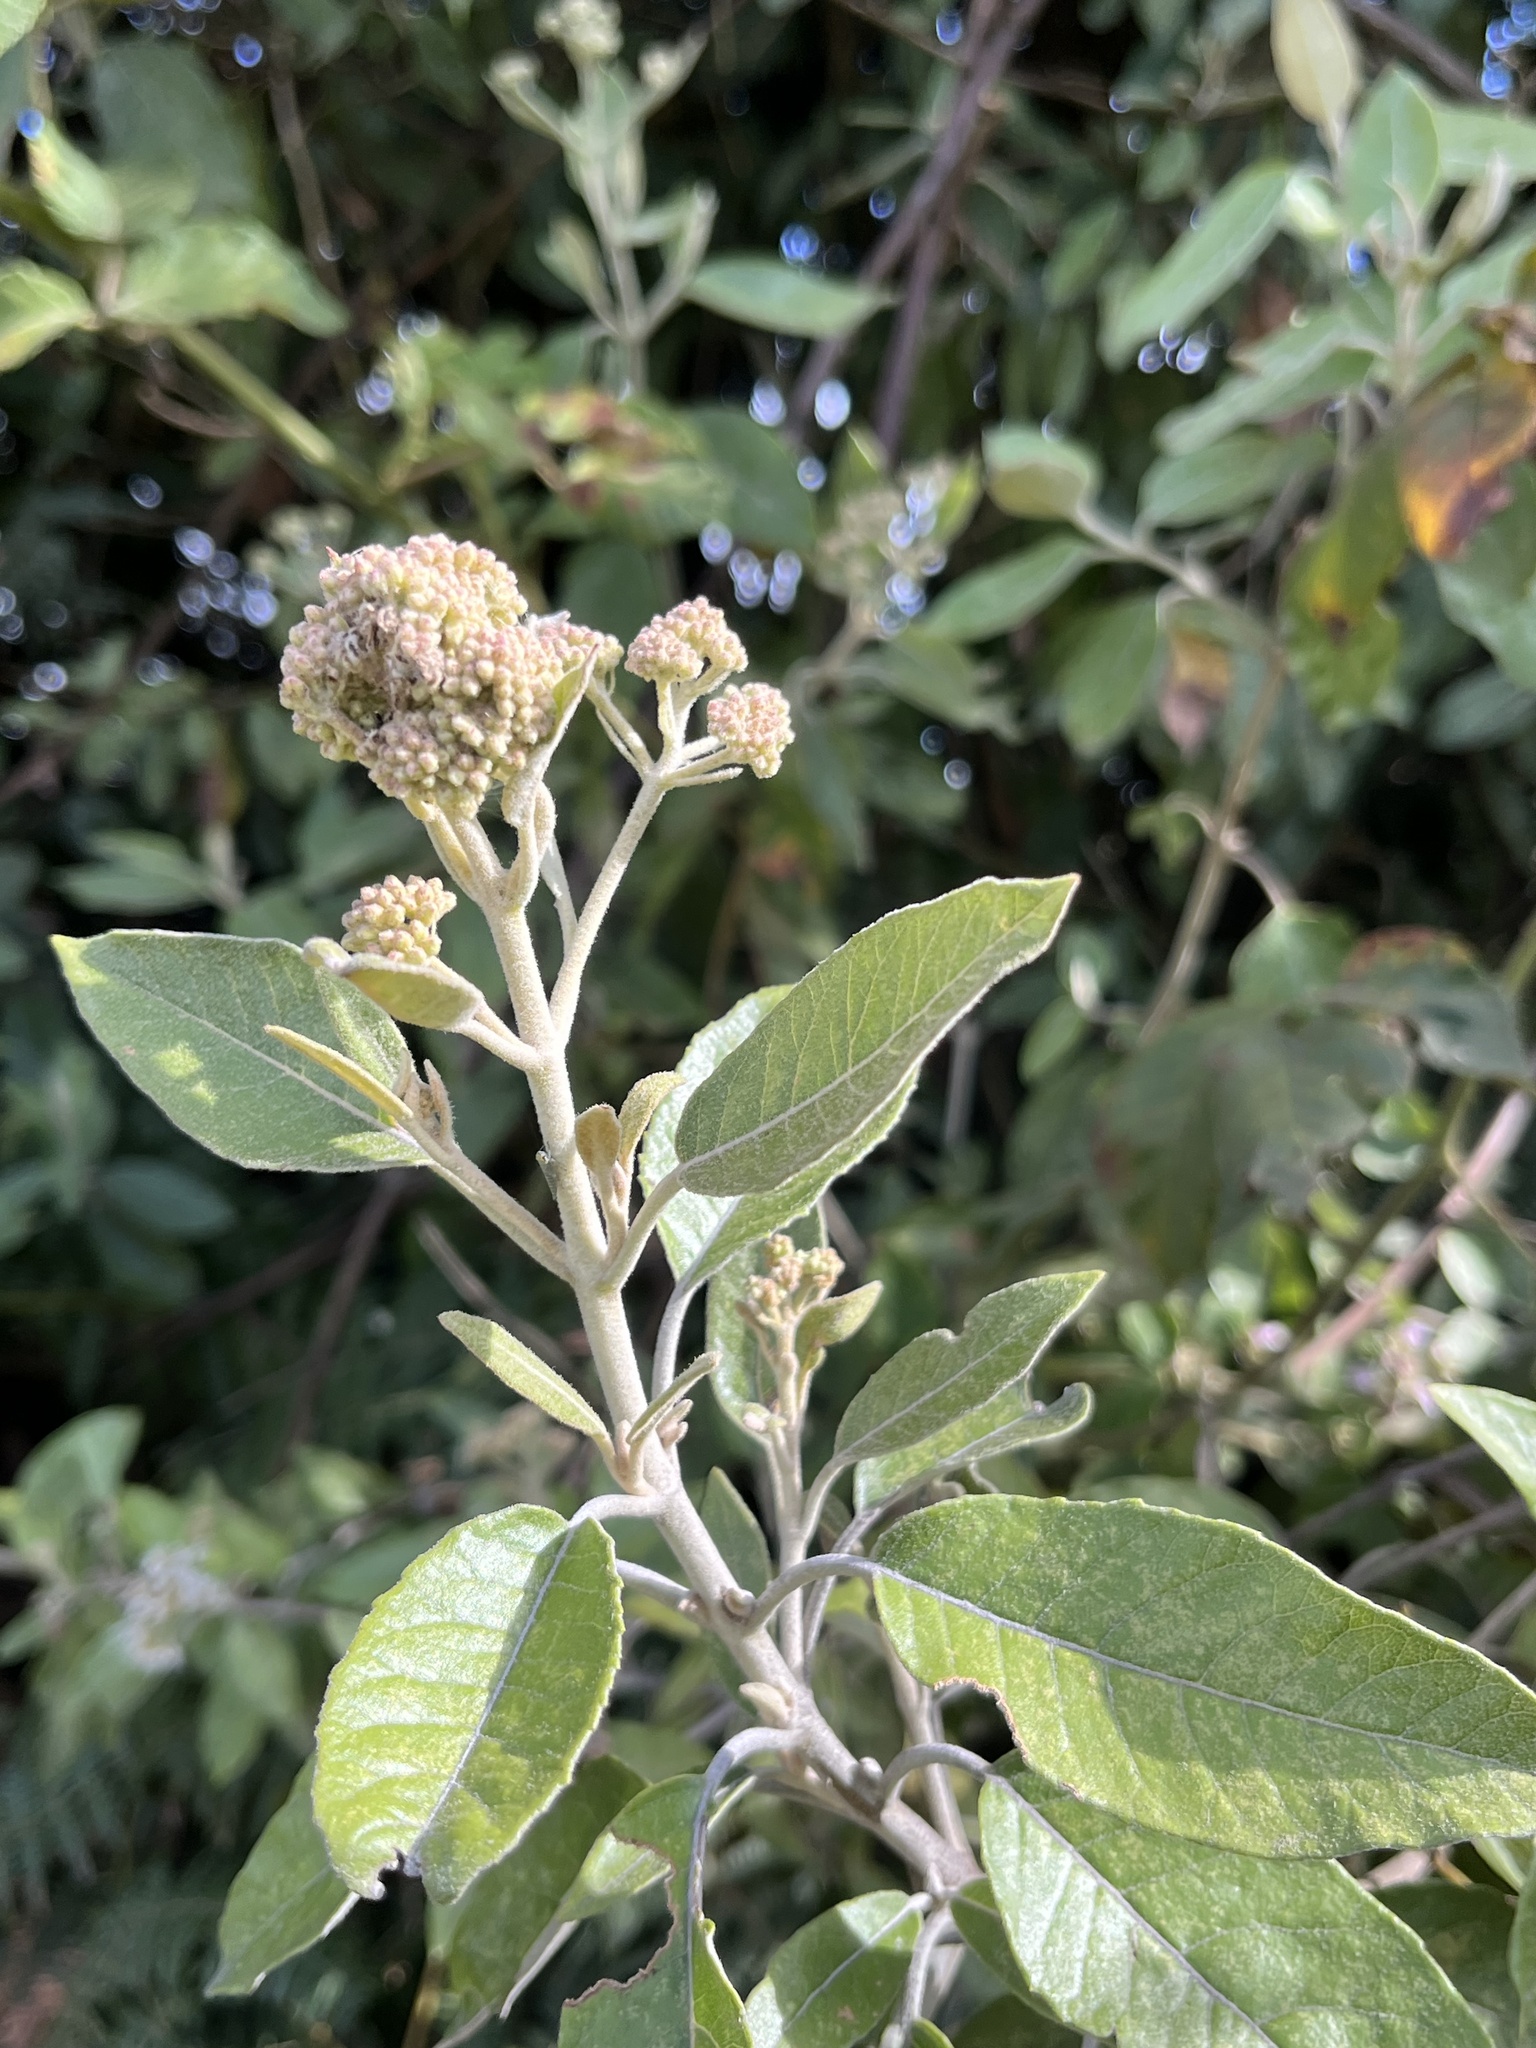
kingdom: Plantae
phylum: Tracheophyta
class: Magnoliopsida
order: Asterales
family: Asteraceae
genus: Ageratina
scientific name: Ageratina asclepiadea
